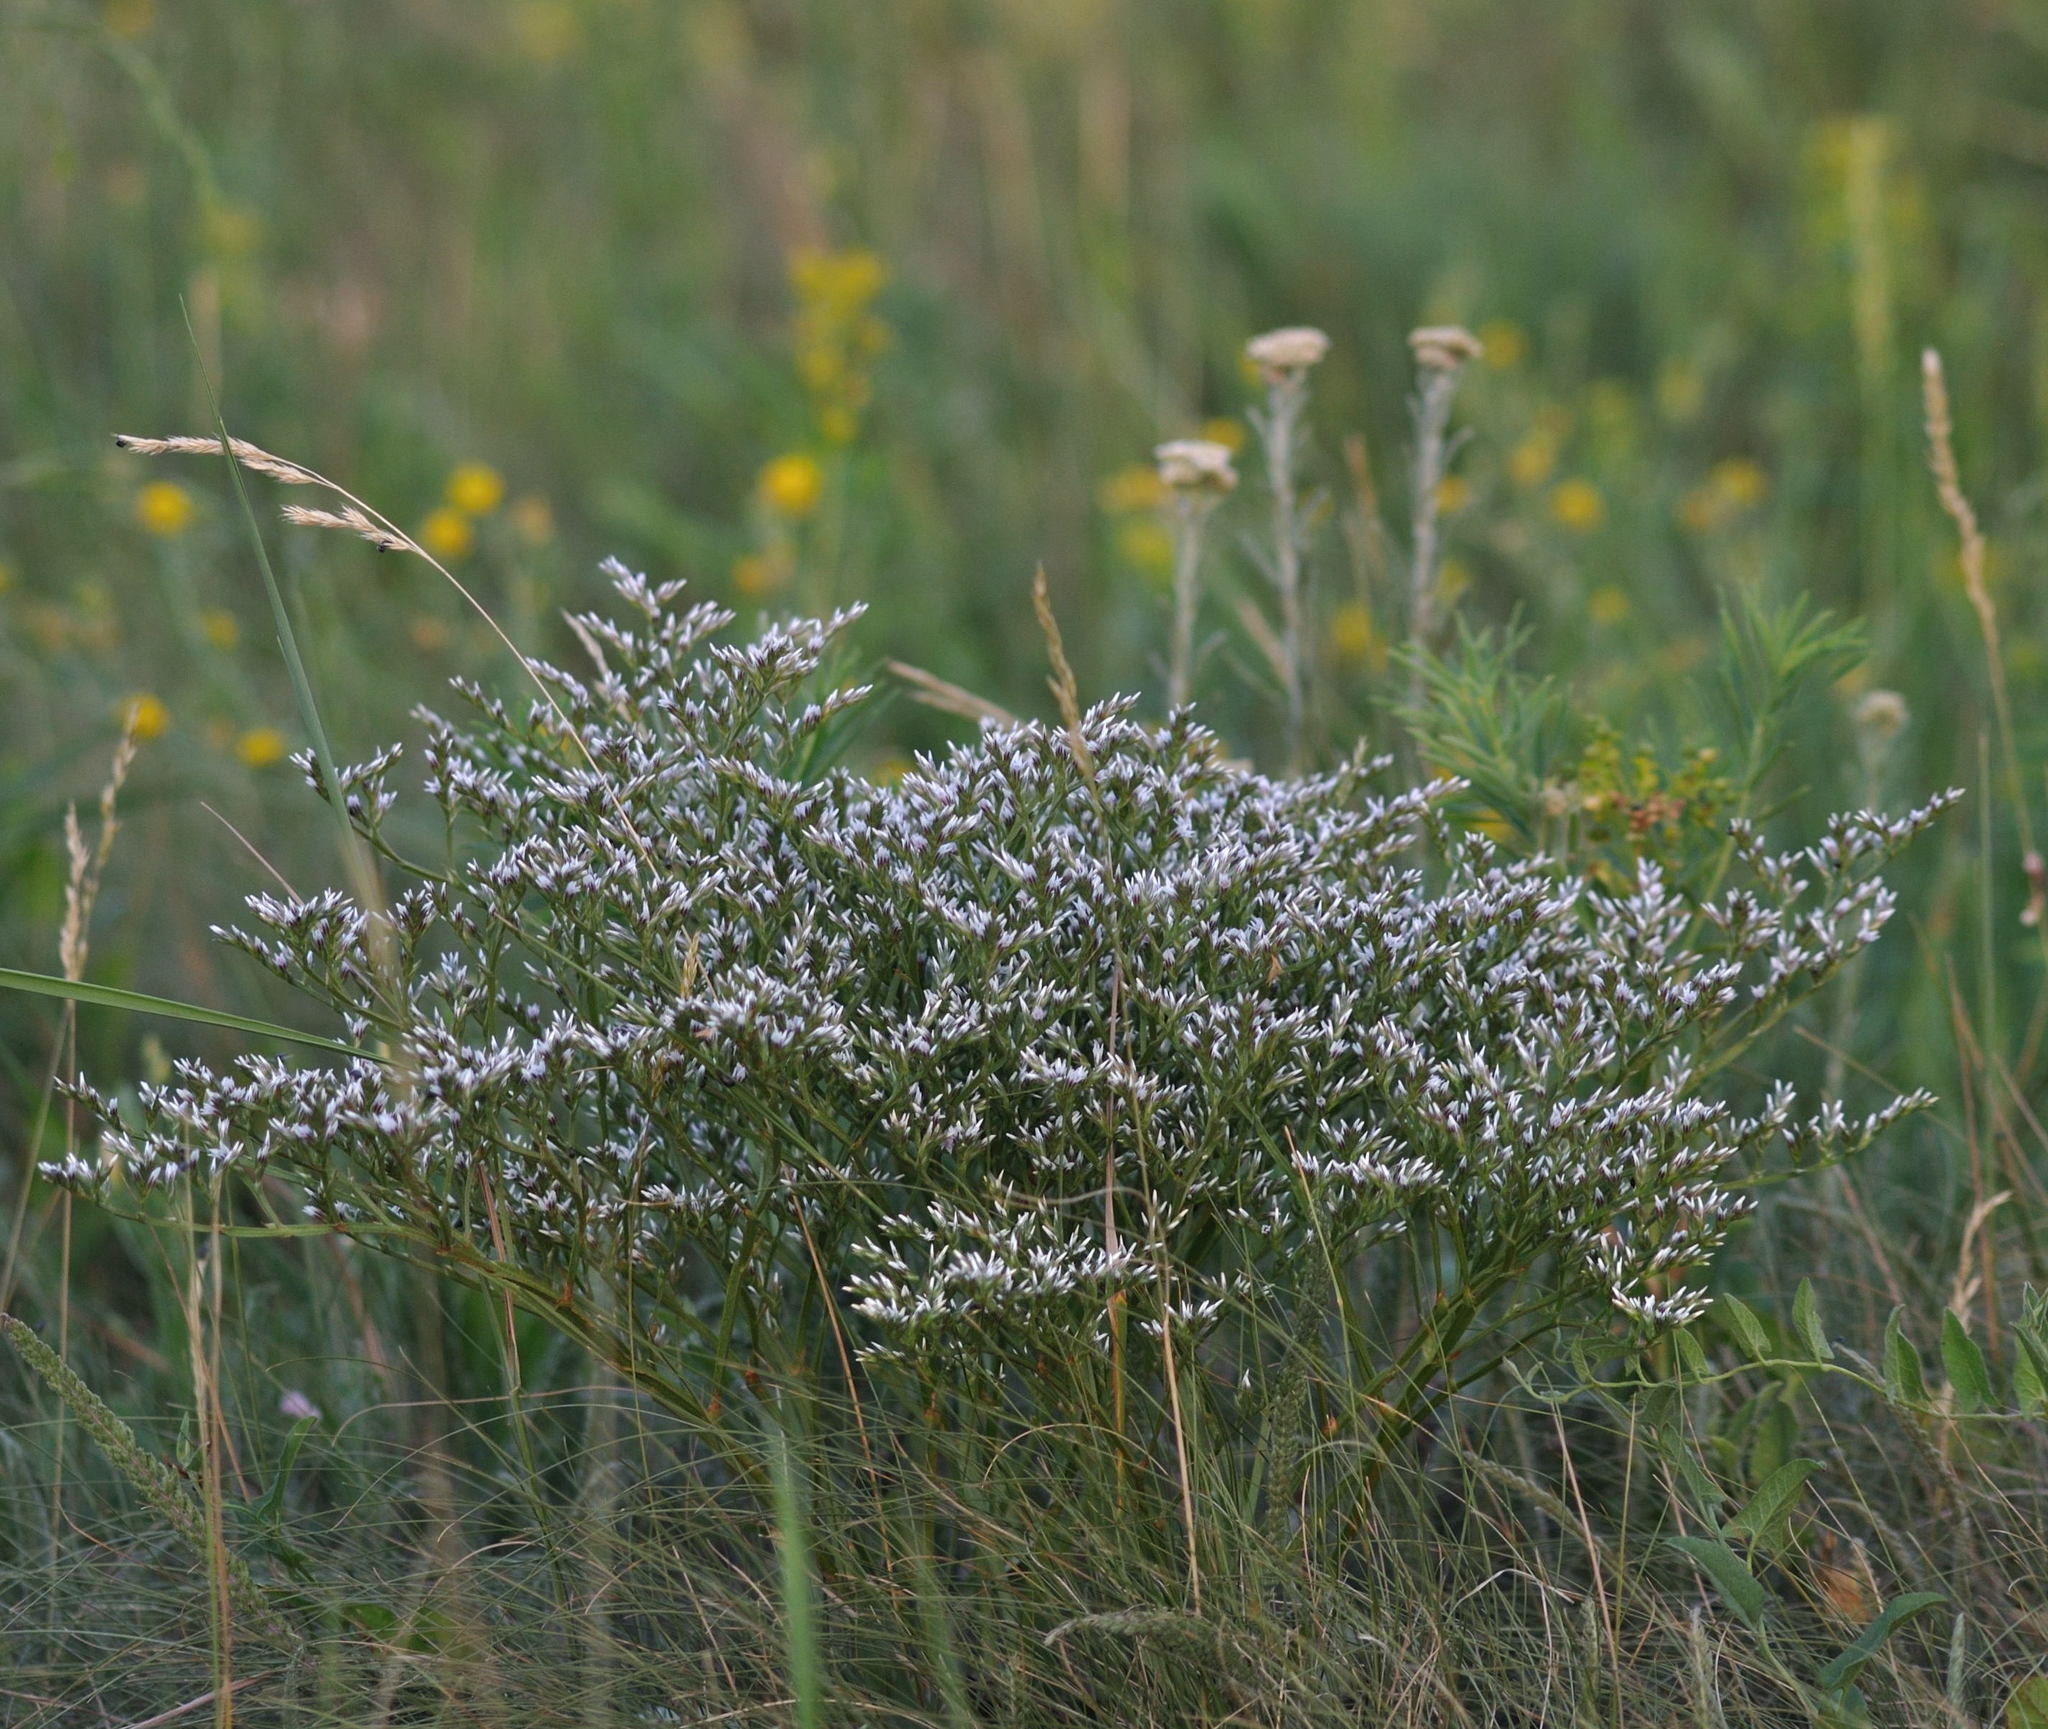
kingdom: Plantae
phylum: Tracheophyta
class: Magnoliopsida
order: Caryophyllales
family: Plumbaginaceae
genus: Goniolimon
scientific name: Goniolimon tataricum
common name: Statice
